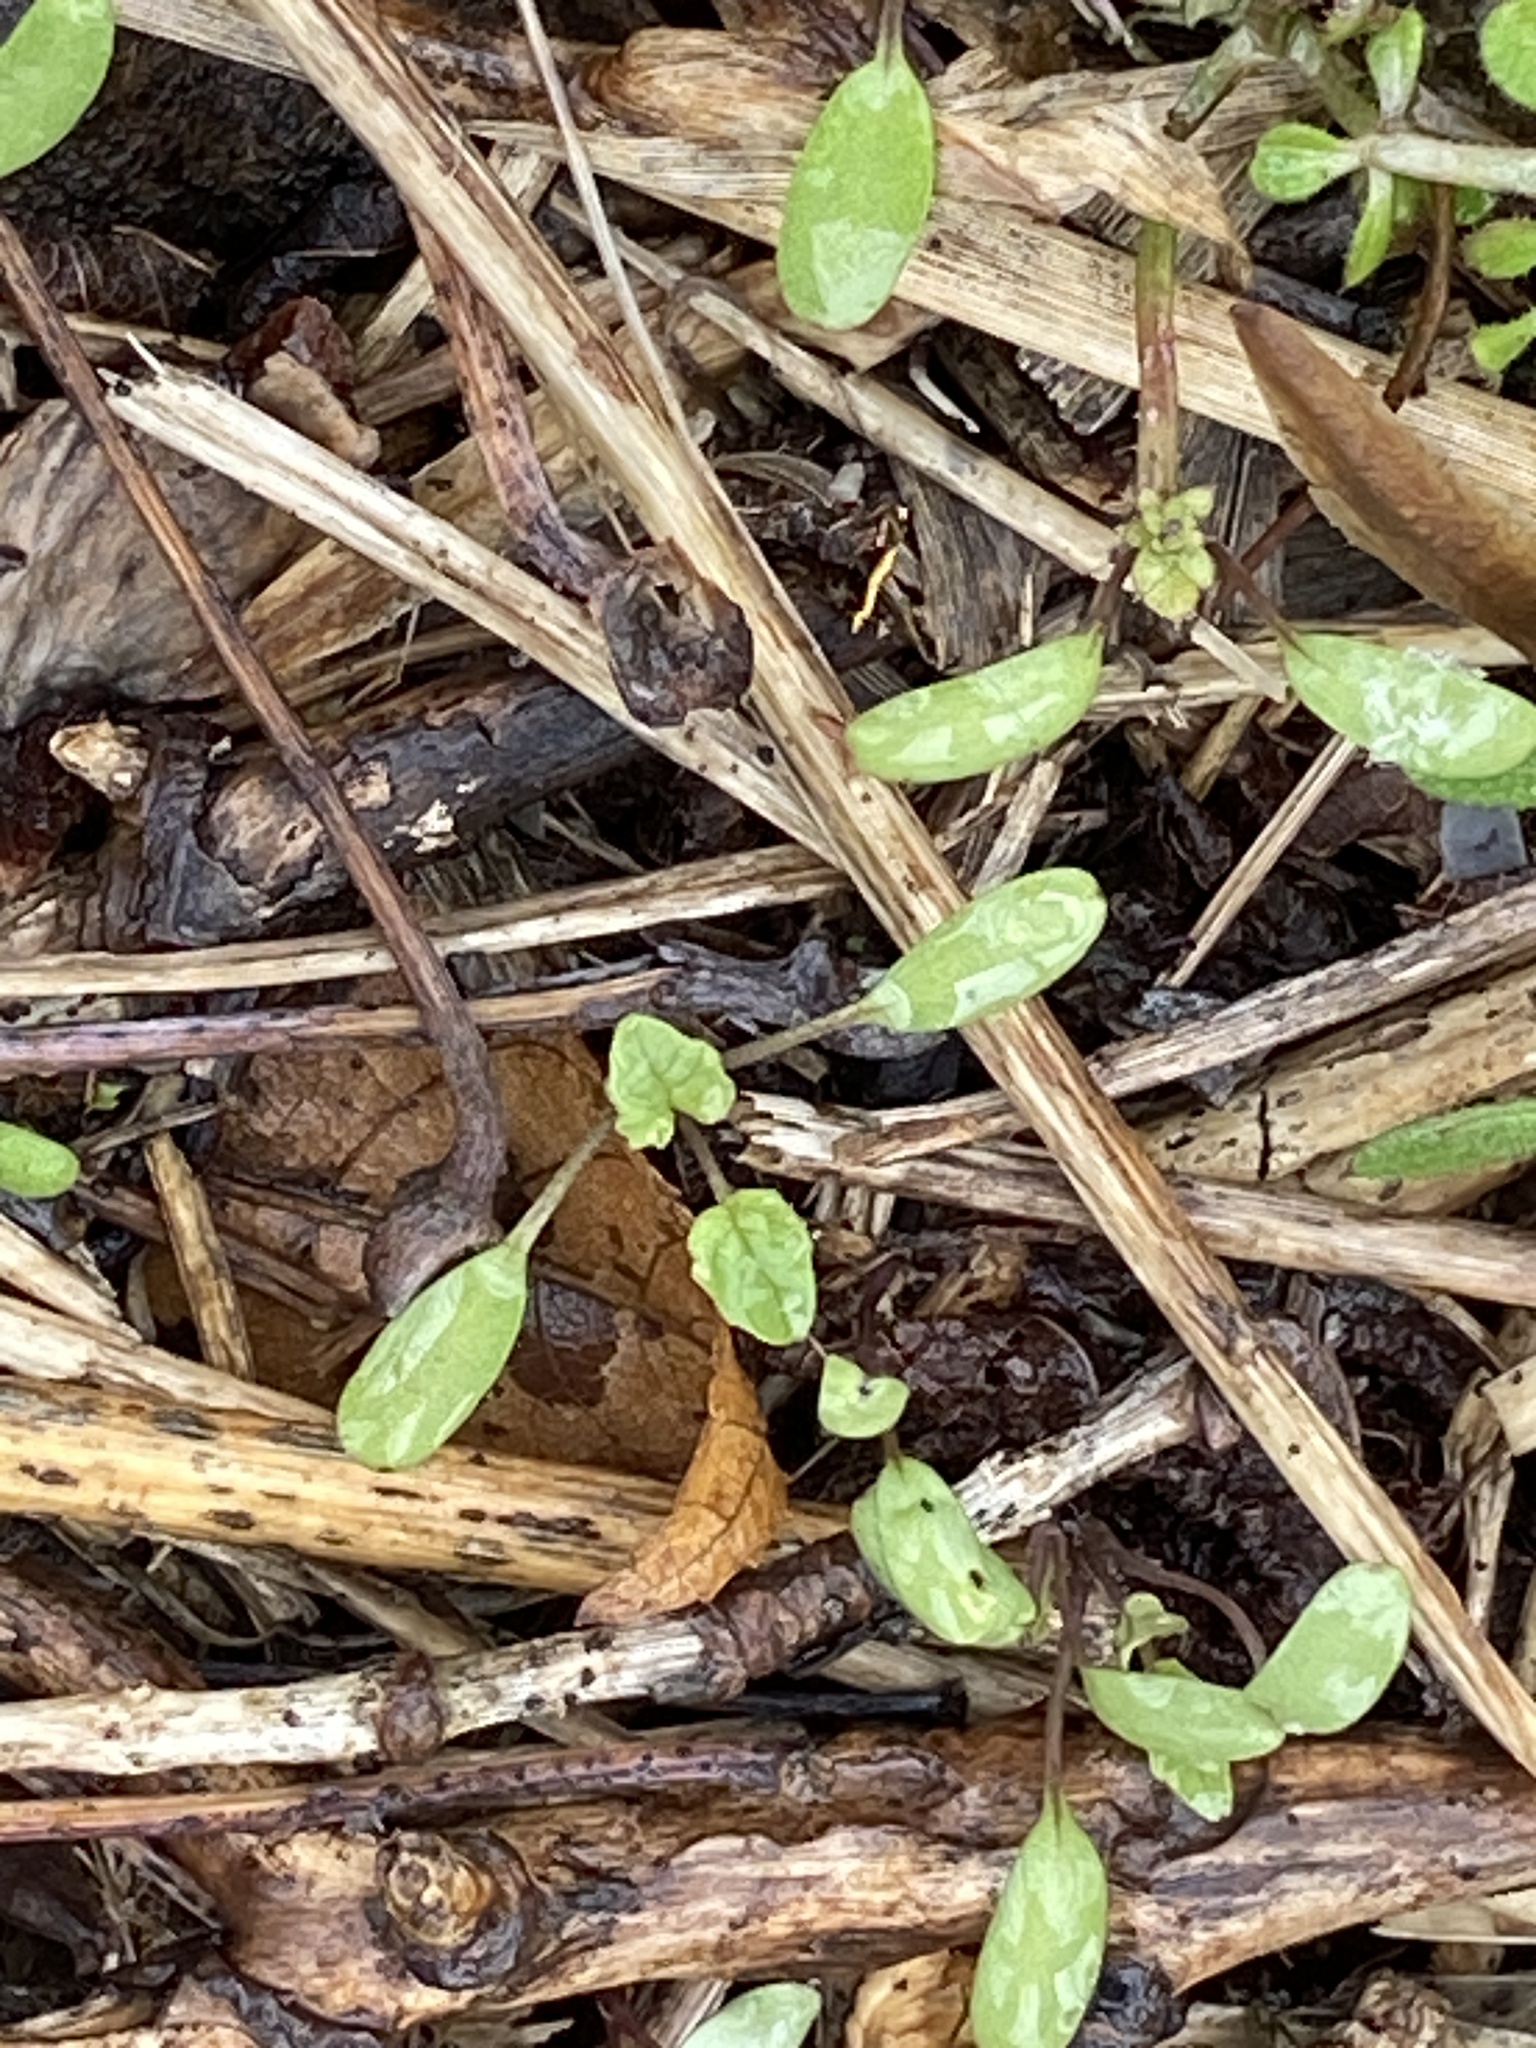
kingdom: Plantae
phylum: Tracheophyta
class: Magnoliopsida
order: Brassicales
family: Brassicaceae
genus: Alliaria
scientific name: Alliaria petiolata
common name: Garlic mustard
